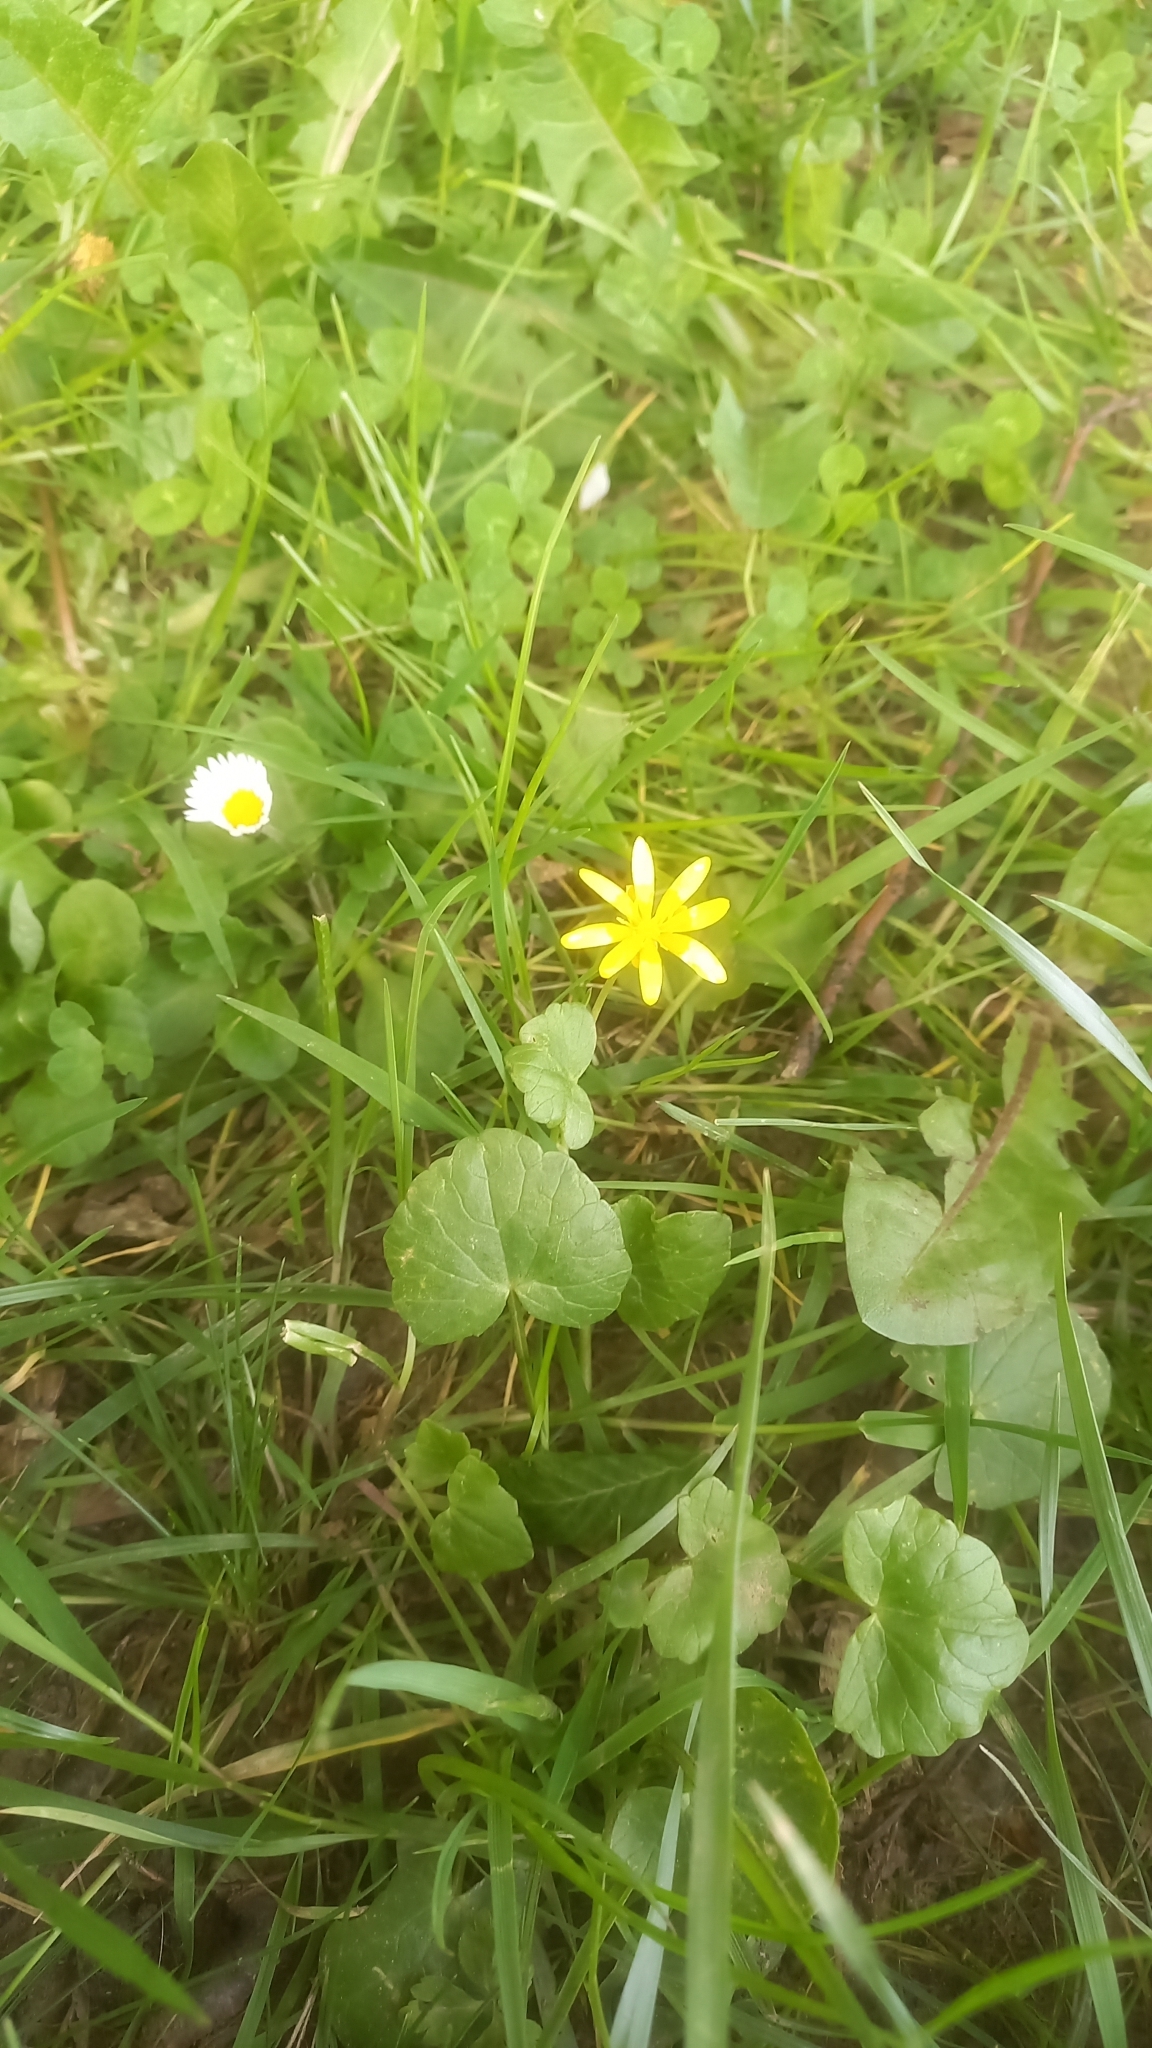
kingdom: Plantae
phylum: Tracheophyta
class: Magnoliopsida
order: Ranunculales
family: Ranunculaceae
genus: Ficaria
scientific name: Ficaria verna
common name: Lesser celandine
